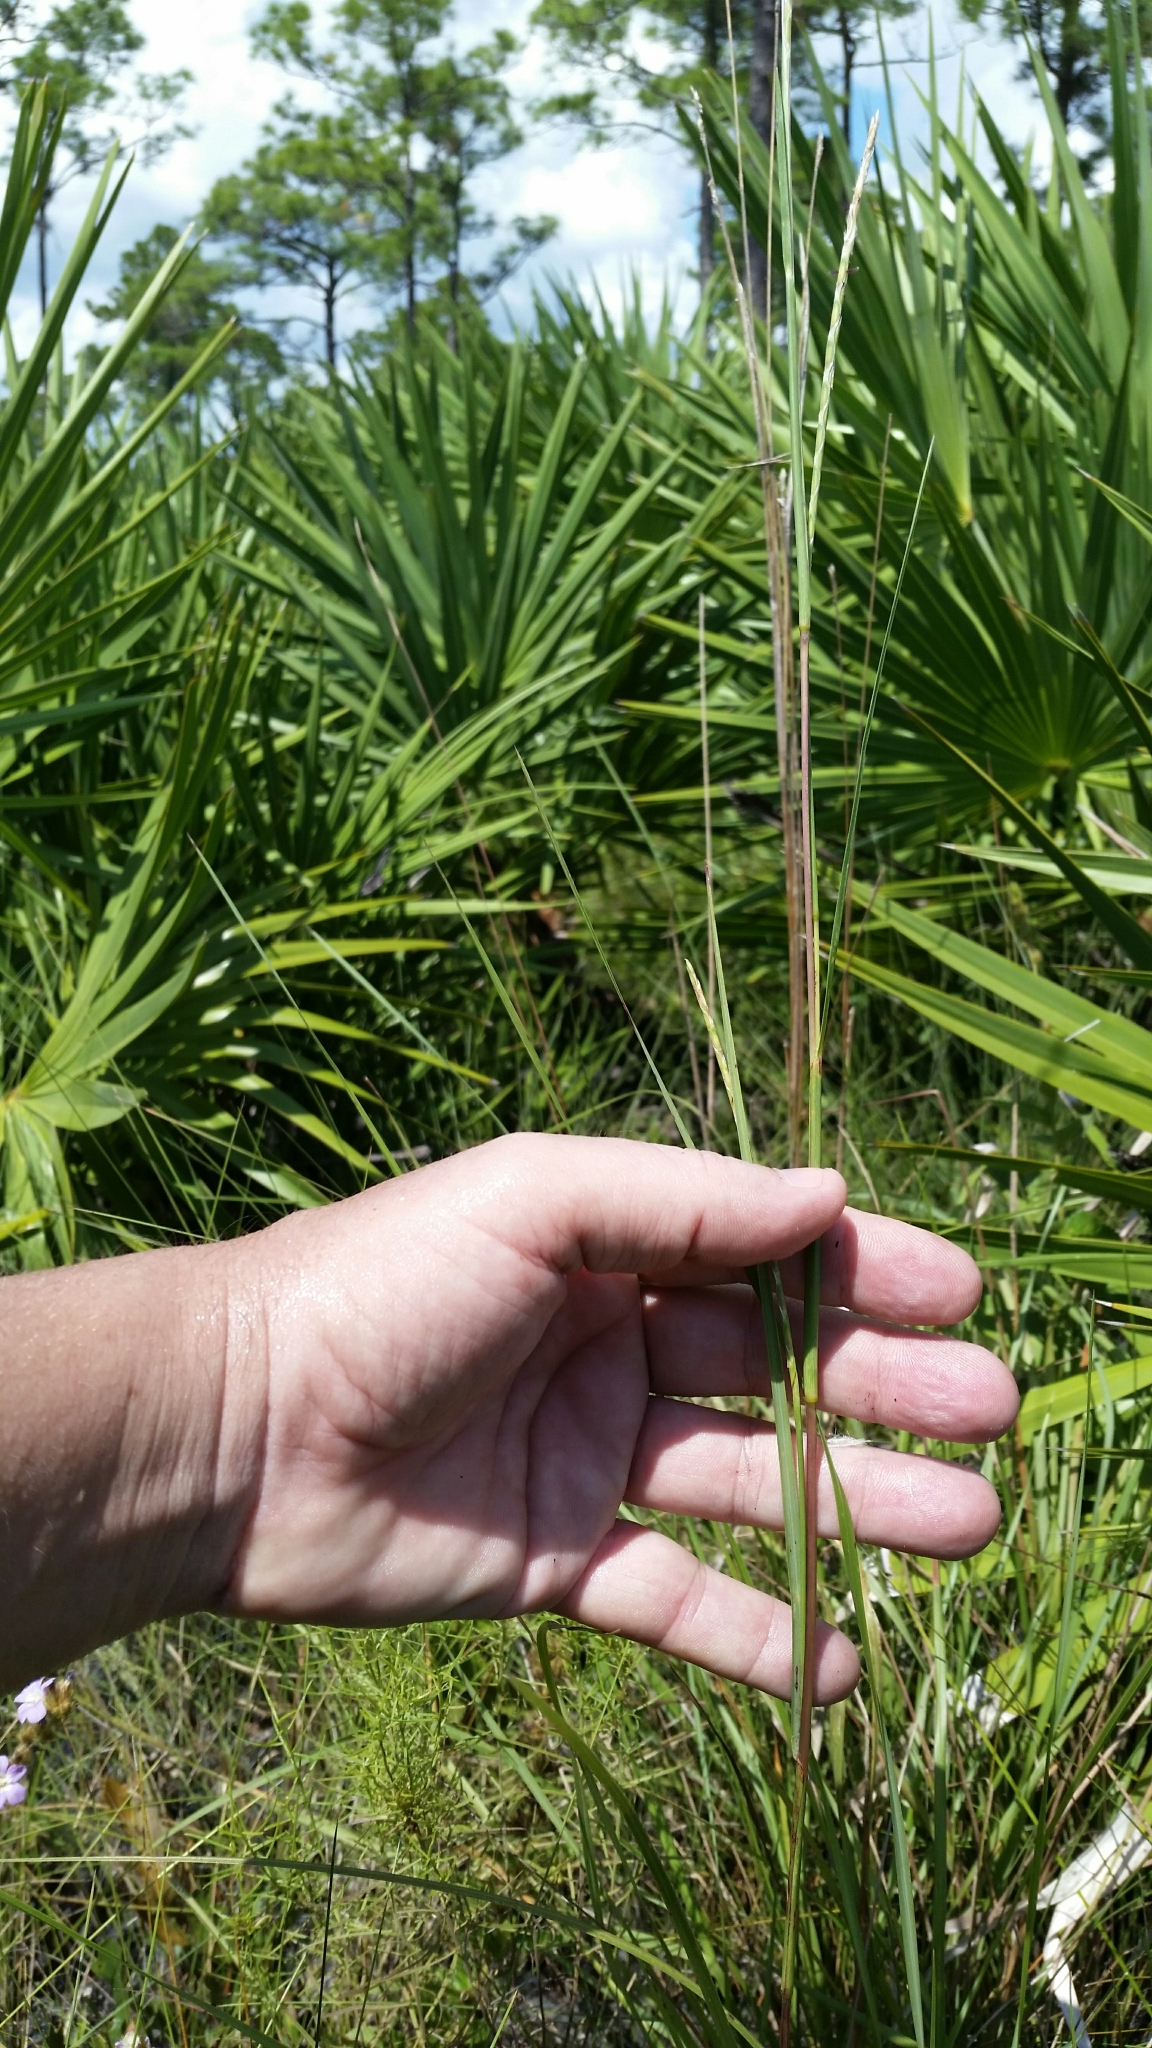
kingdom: Plantae
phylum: Tracheophyta
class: Liliopsida
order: Poales
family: Poaceae
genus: Elionurus
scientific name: Elionurus tripsacoides
